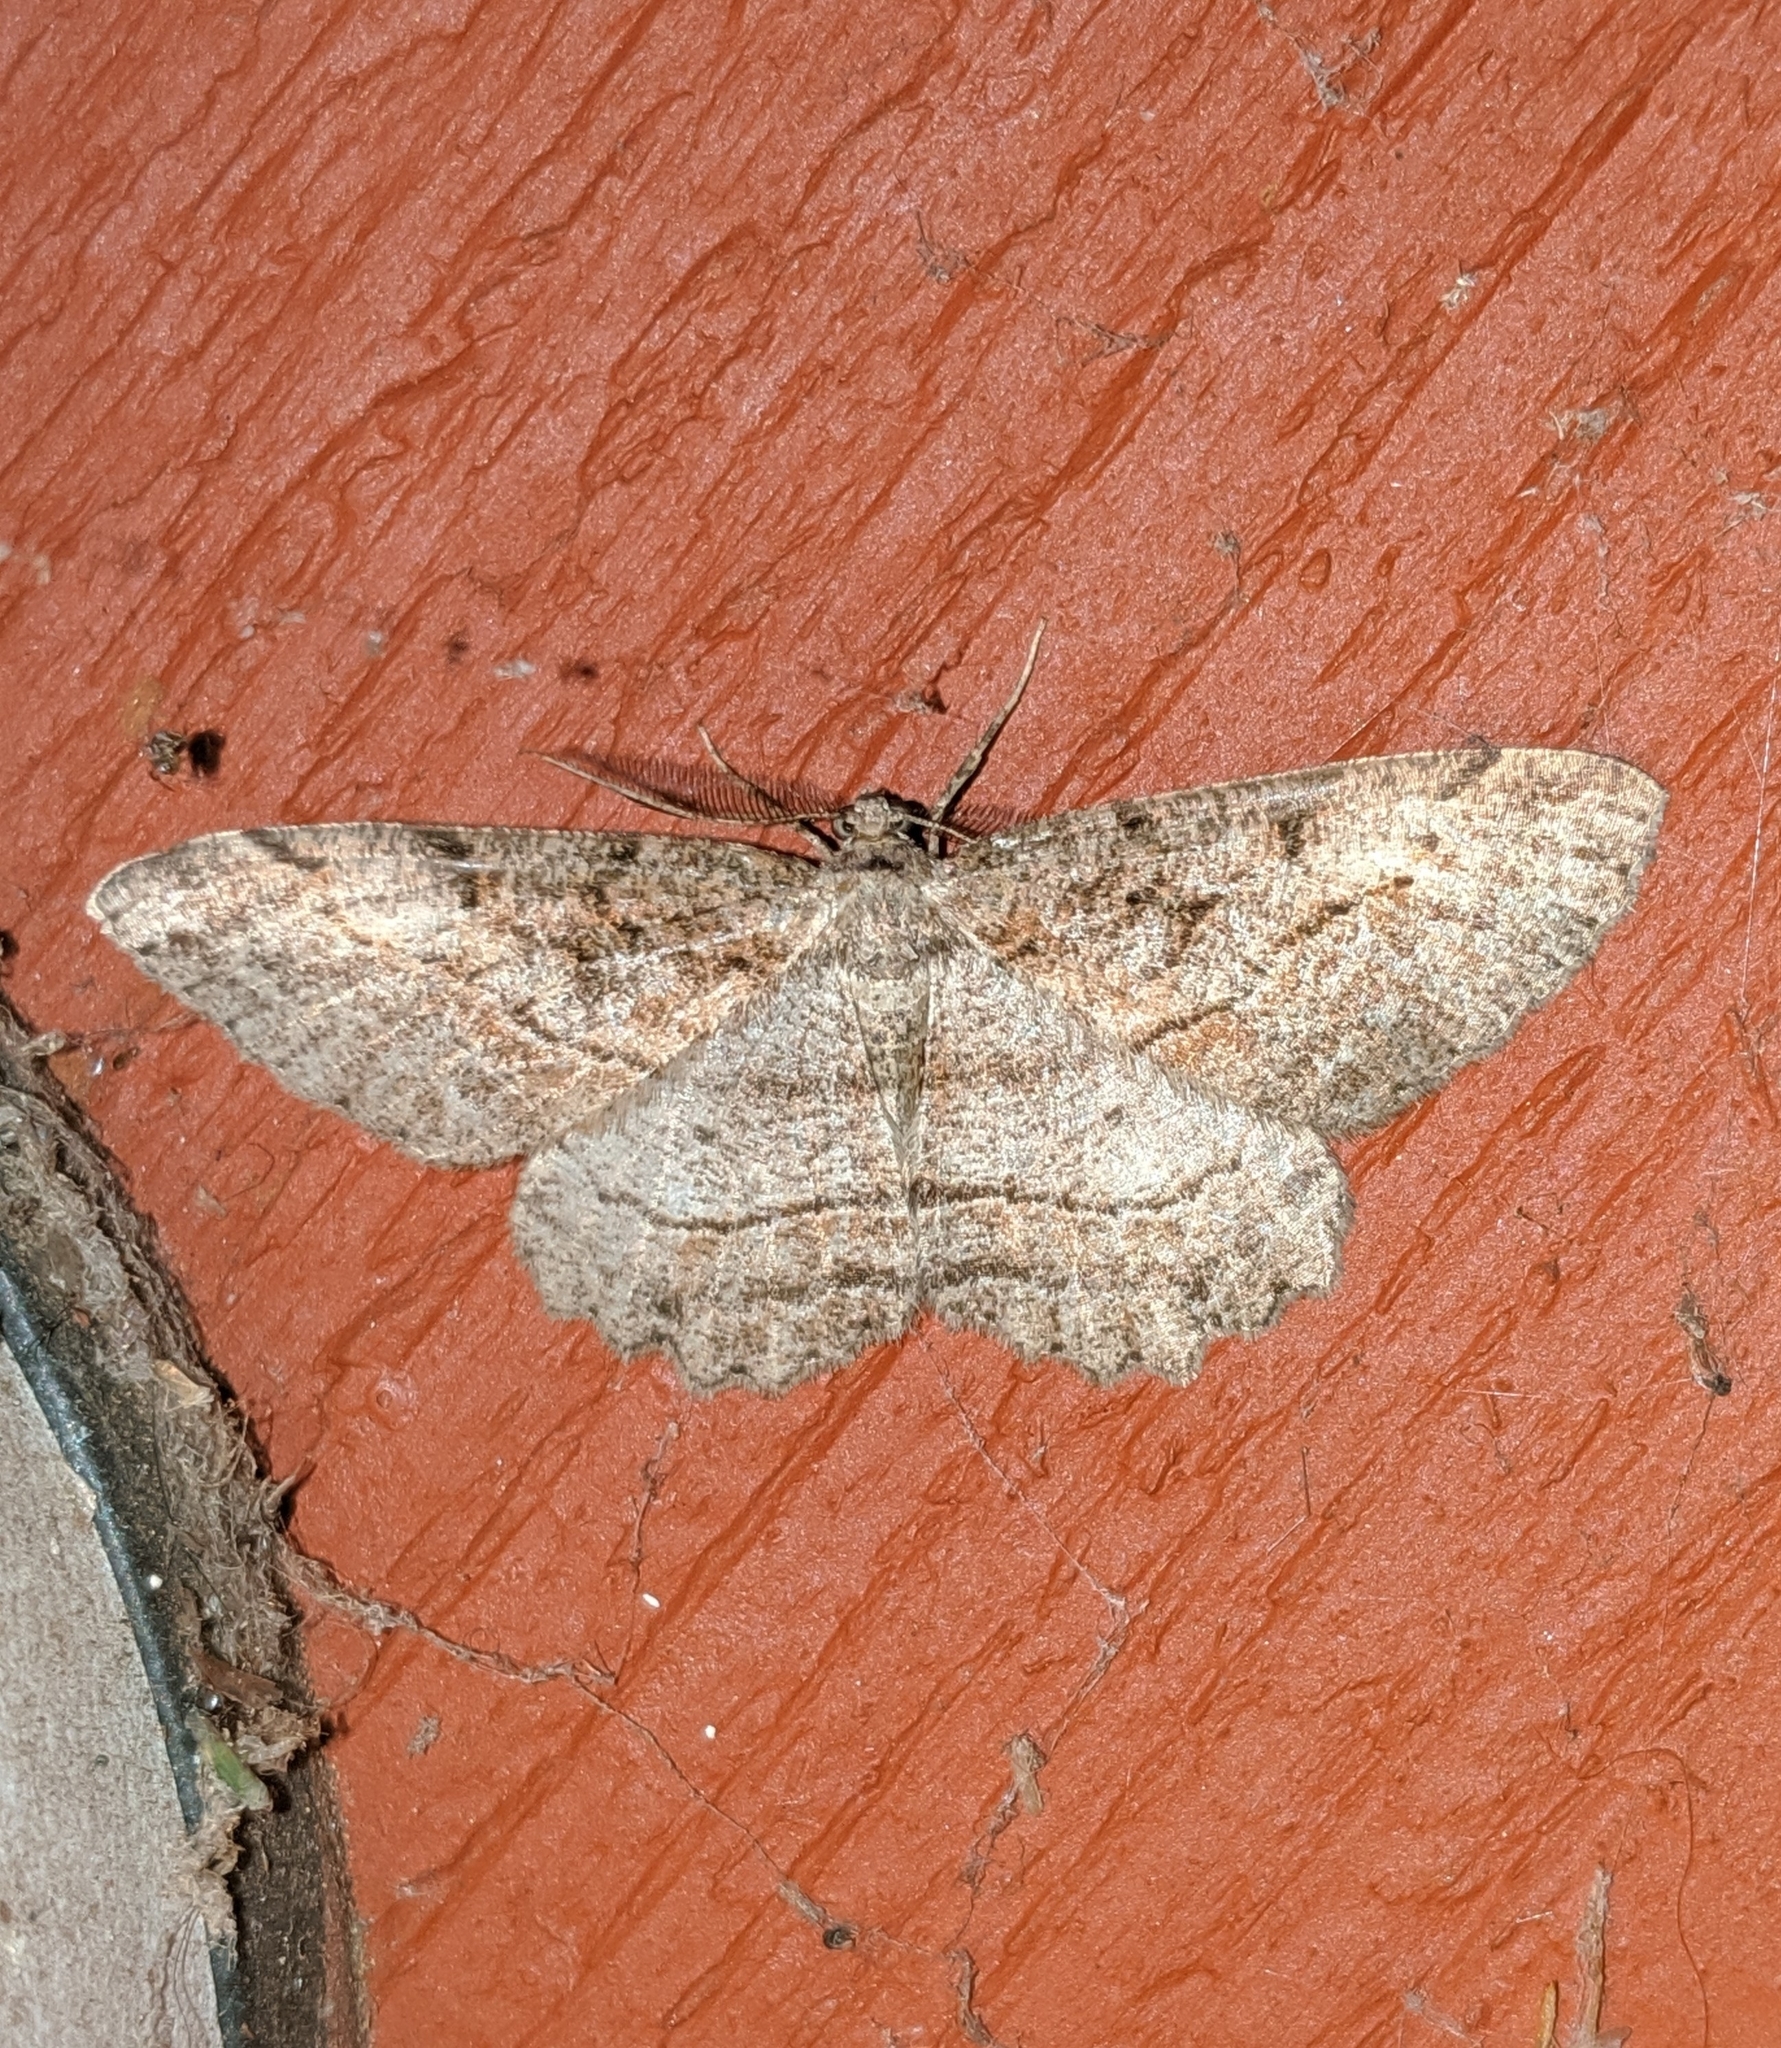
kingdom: Animalia
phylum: Arthropoda
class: Insecta
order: Lepidoptera
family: Geometridae
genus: Neoalcis
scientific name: Neoalcis californiaria
